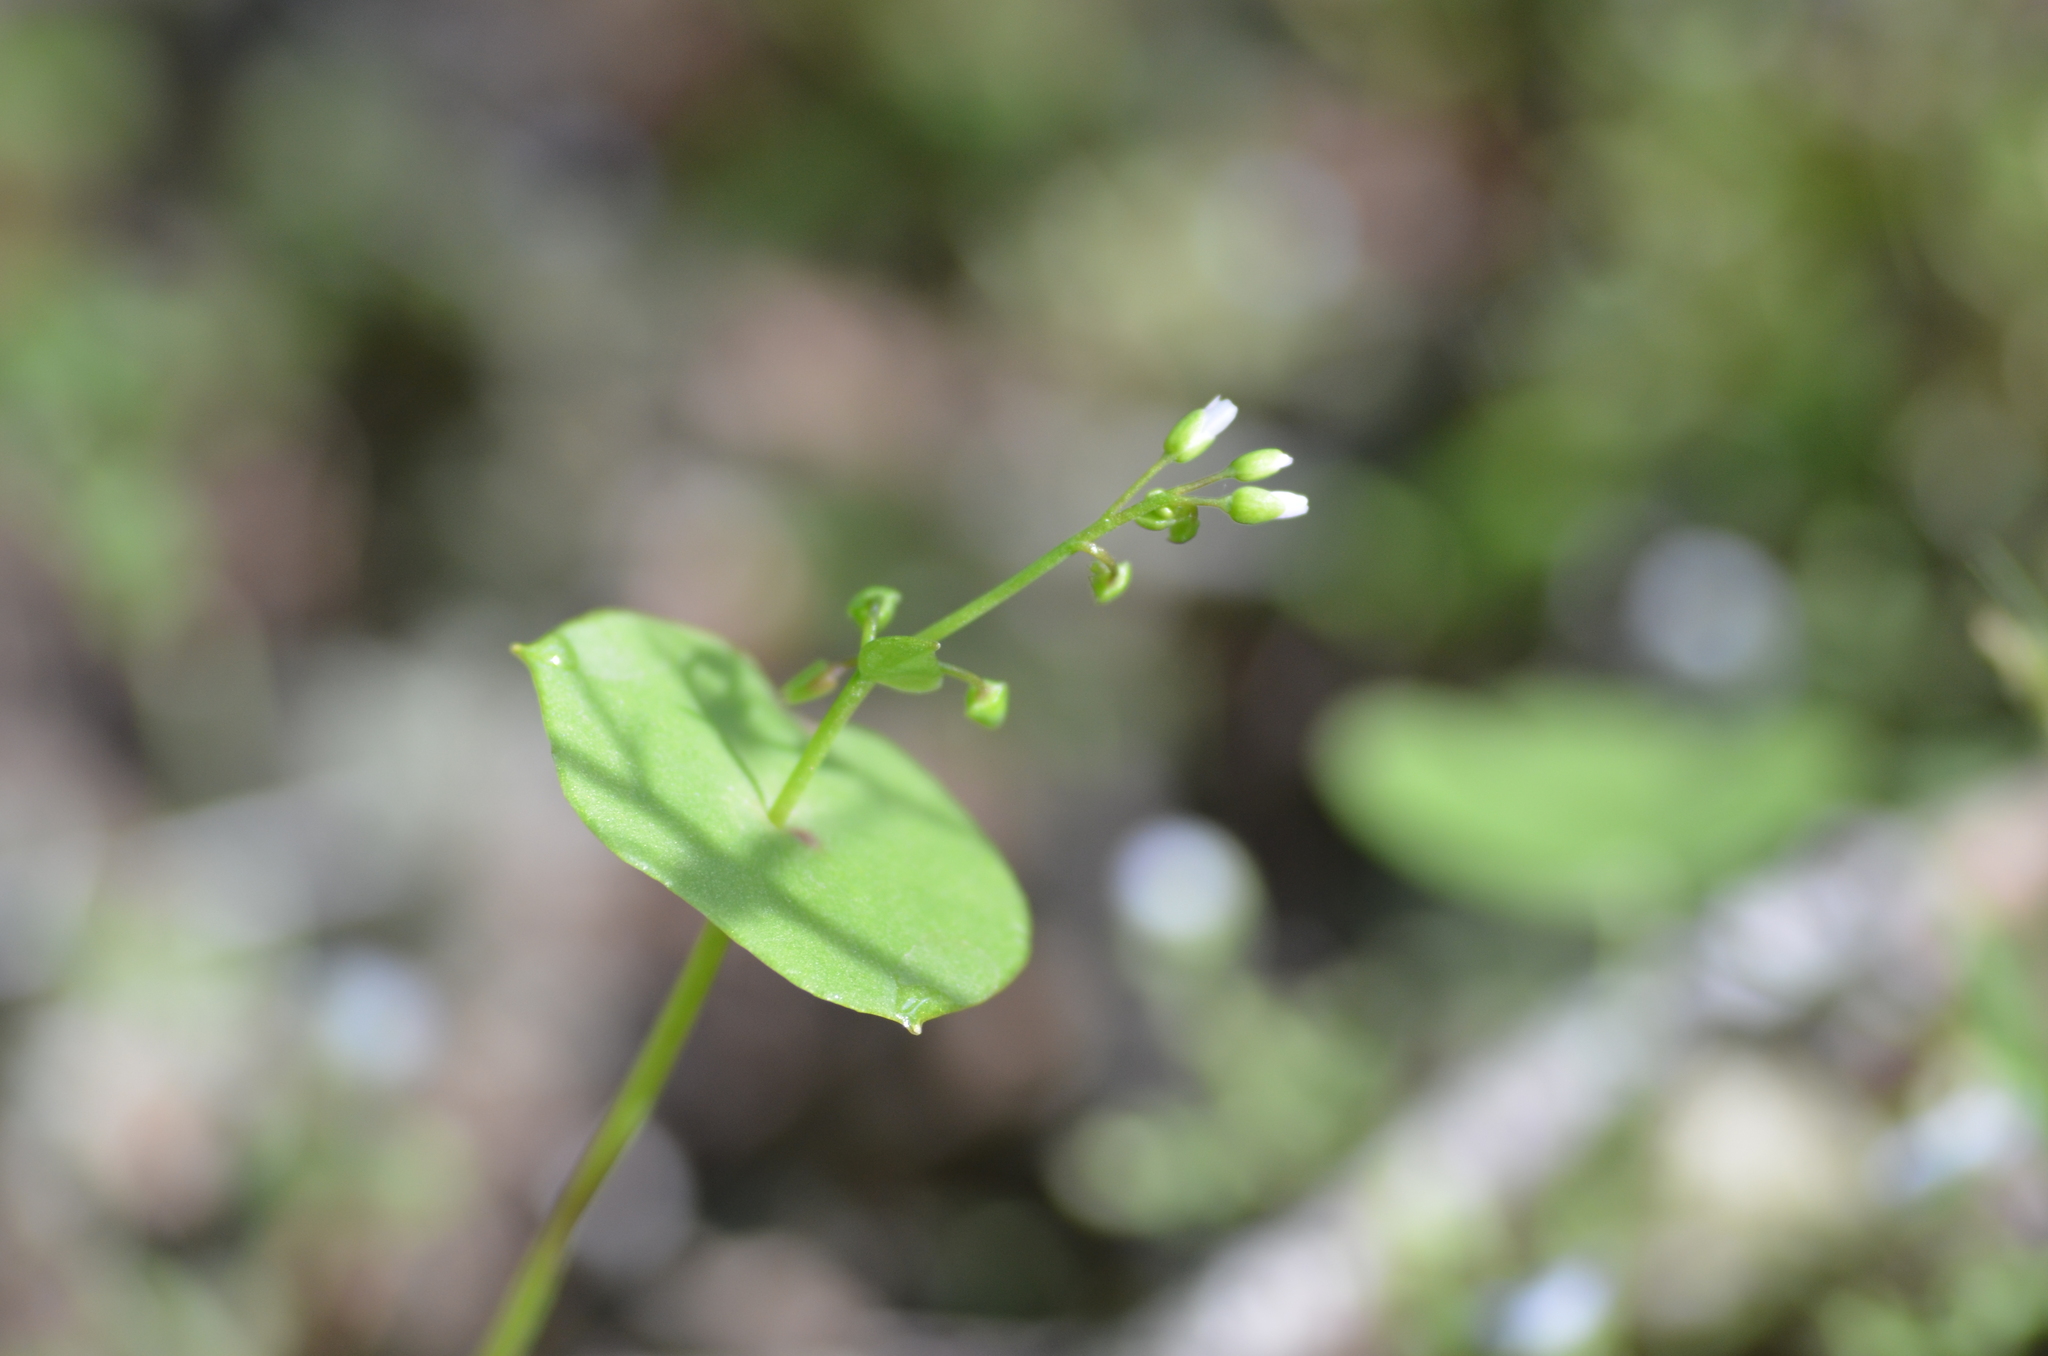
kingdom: Plantae
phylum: Tracheophyta
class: Magnoliopsida
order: Caryophyllales
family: Montiaceae
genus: Claytonia
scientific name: Claytonia perfoliata
